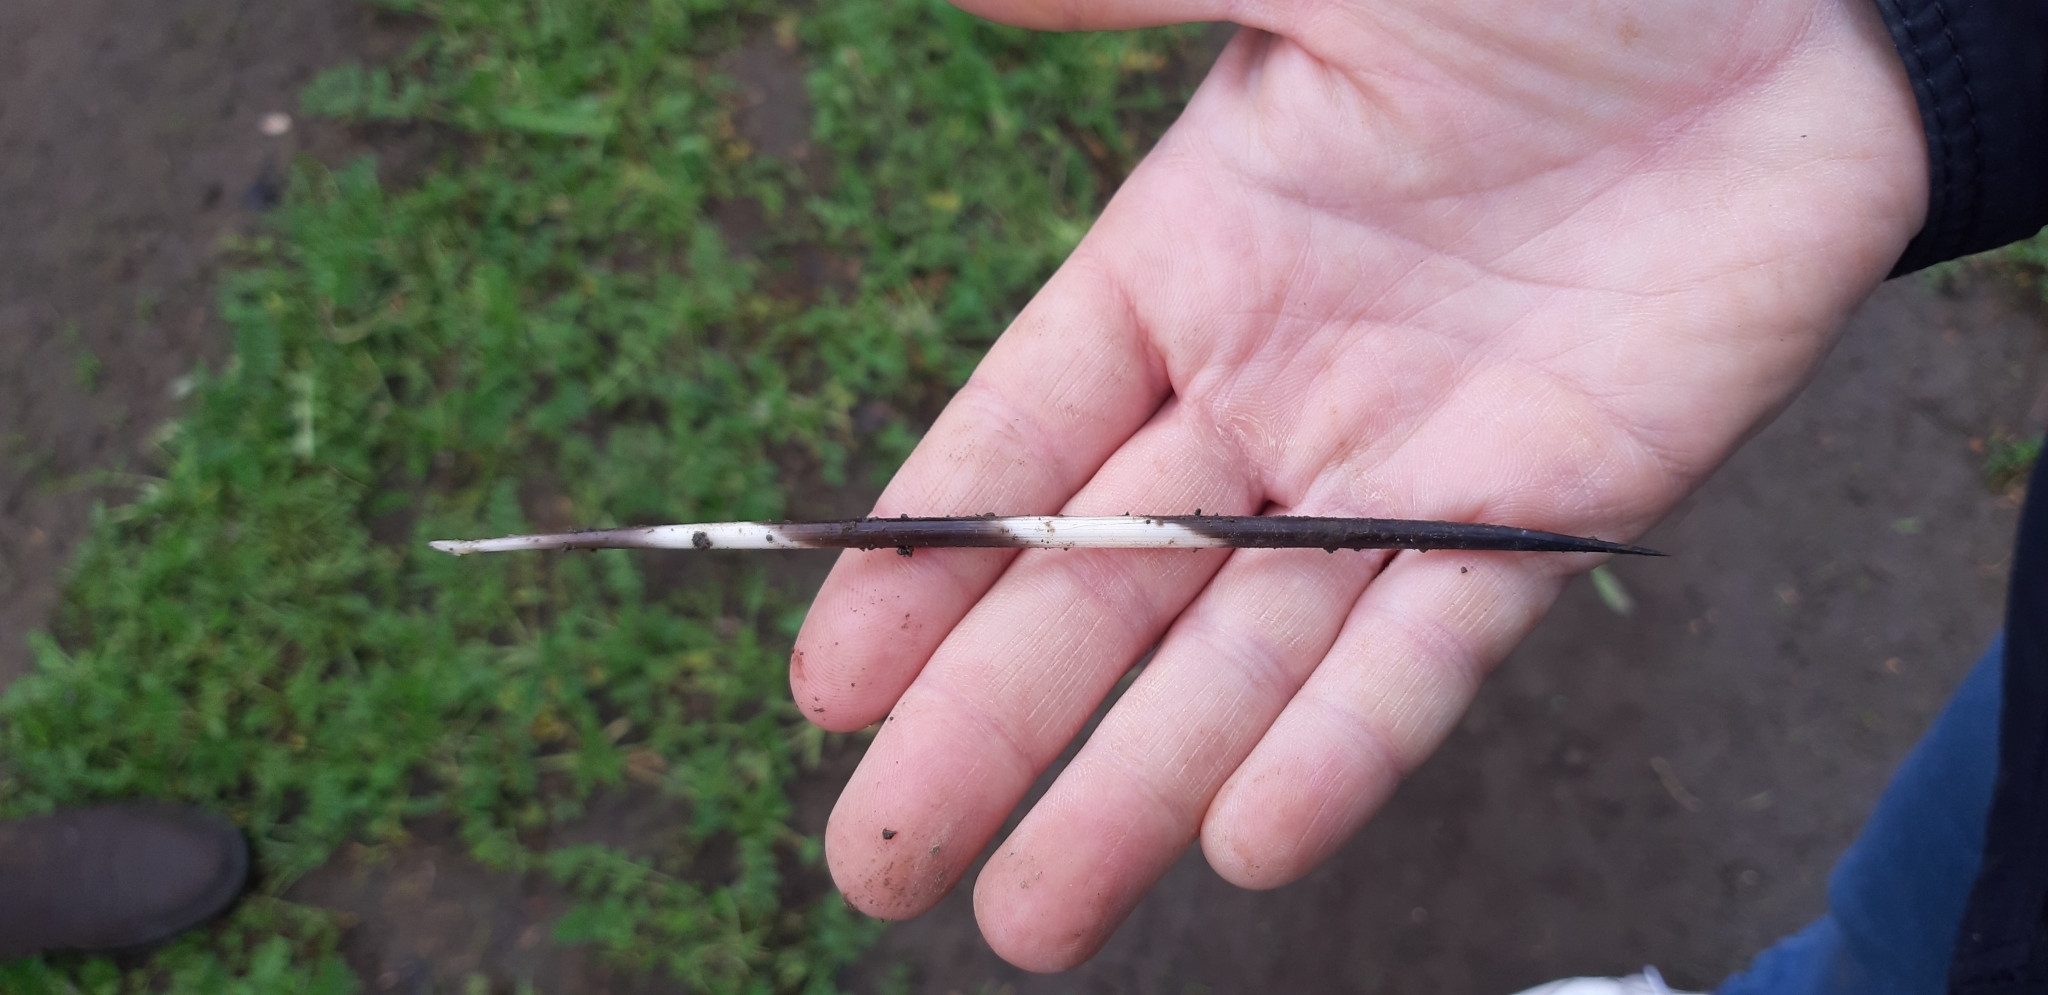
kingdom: Animalia
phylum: Chordata
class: Mammalia
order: Rodentia
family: Hystricidae
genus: Hystrix
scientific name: Hystrix cristata
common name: Crested porcupine
